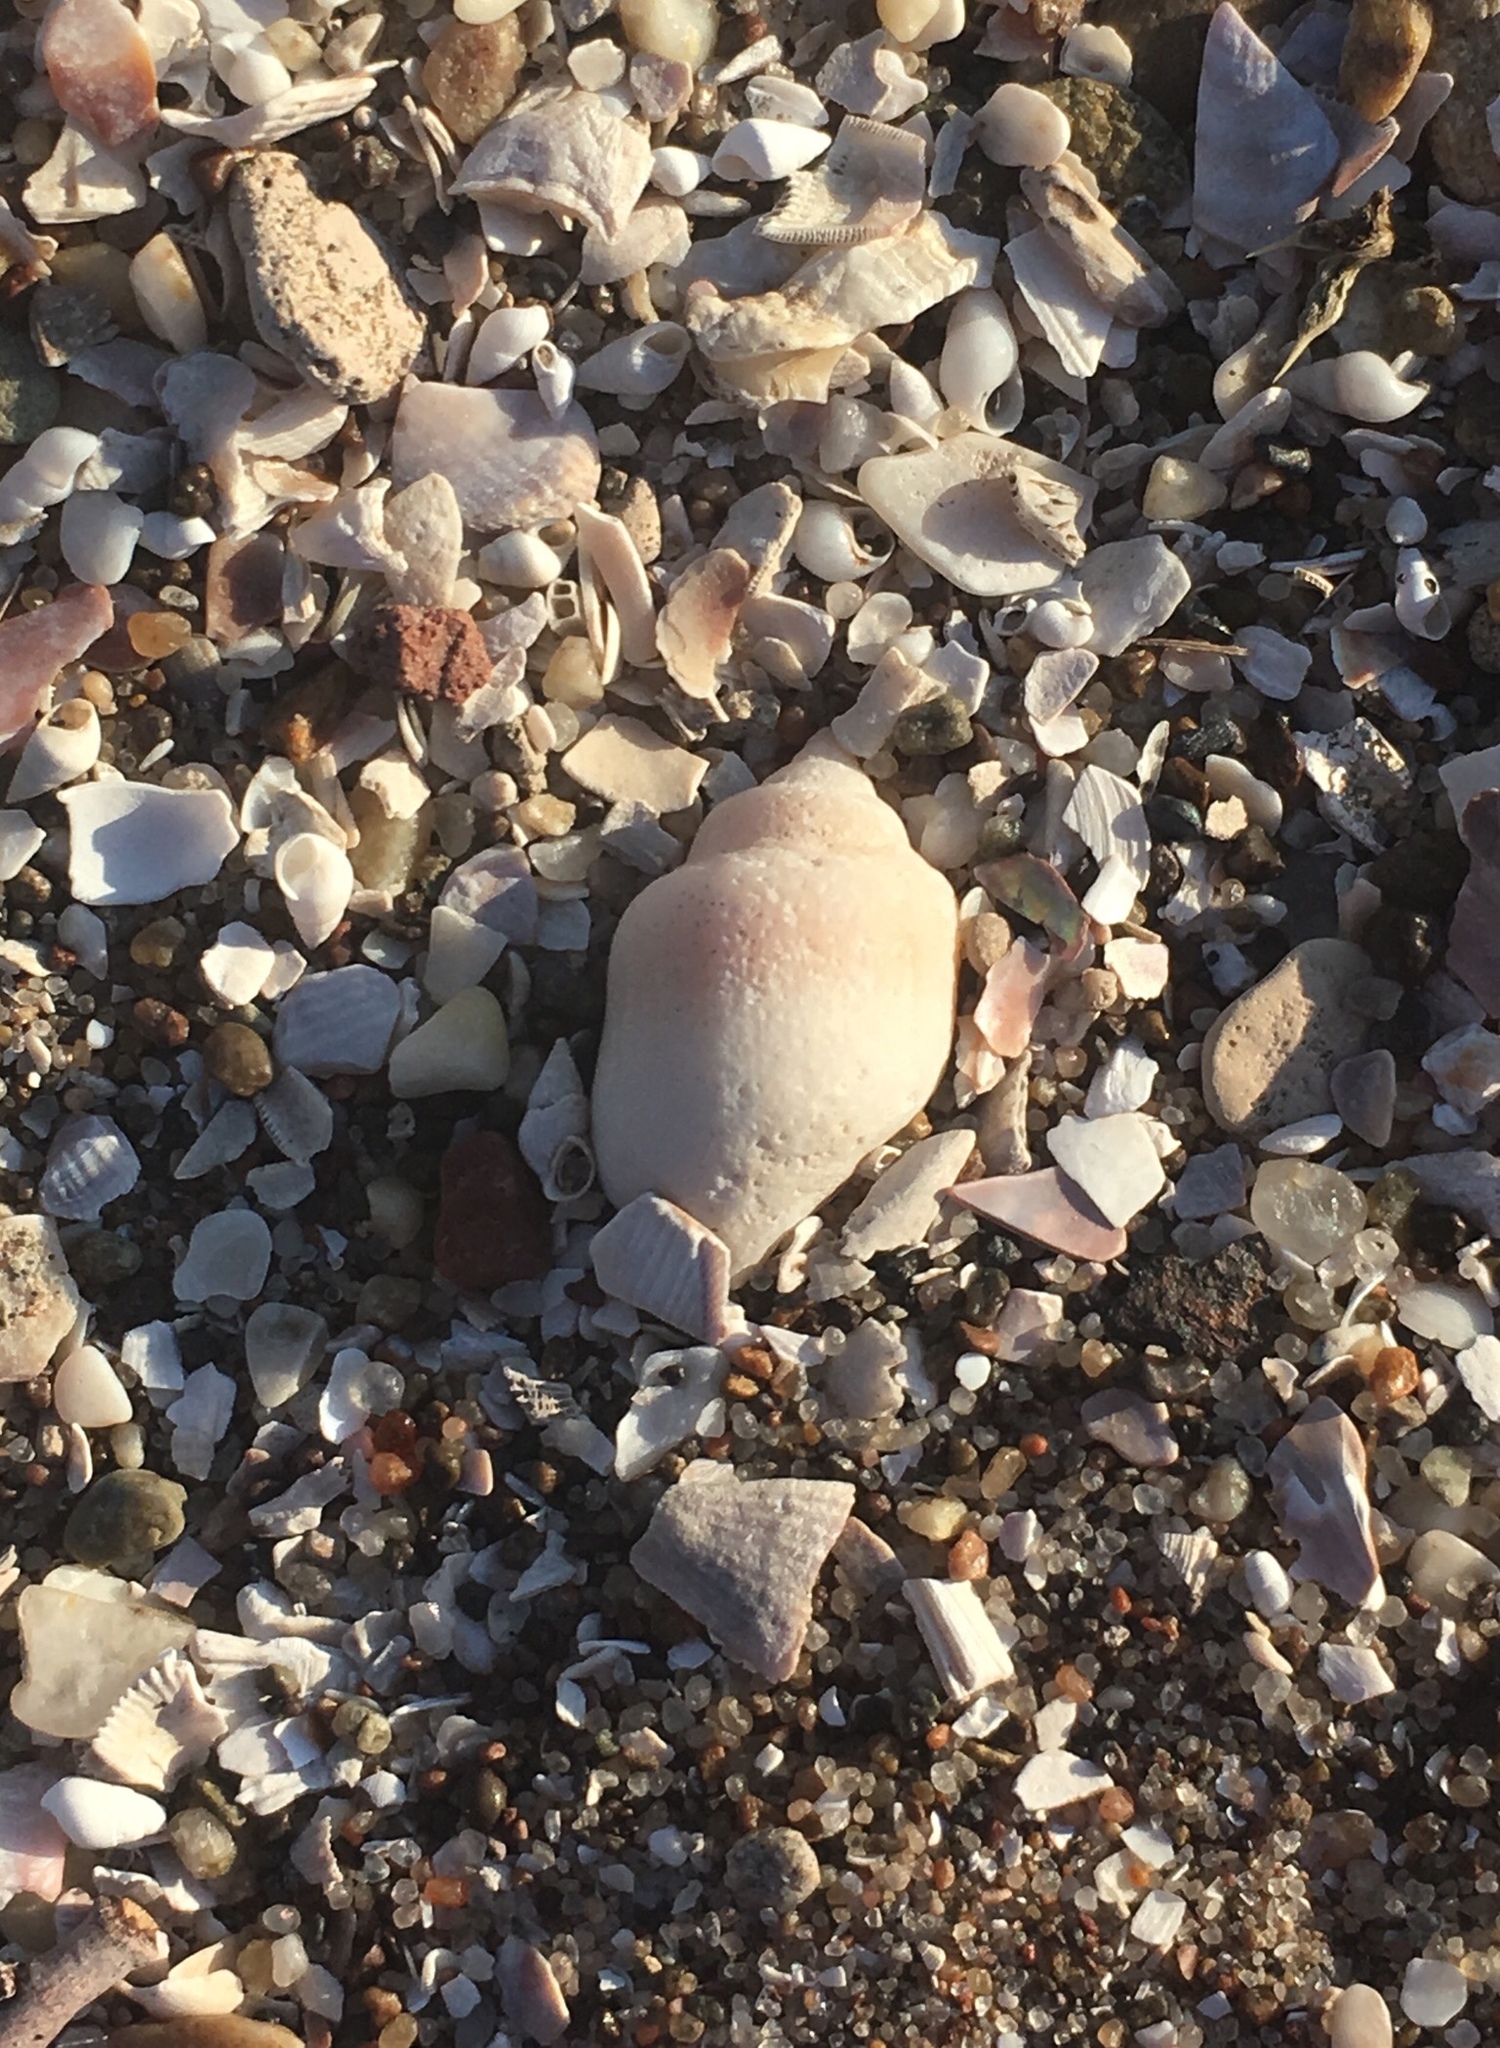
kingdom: Animalia
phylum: Mollusca
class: Gastropoda
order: Neogastropoda
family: Buccinanopsidae
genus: Buccinastrum
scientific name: Buccinastrum deforme
